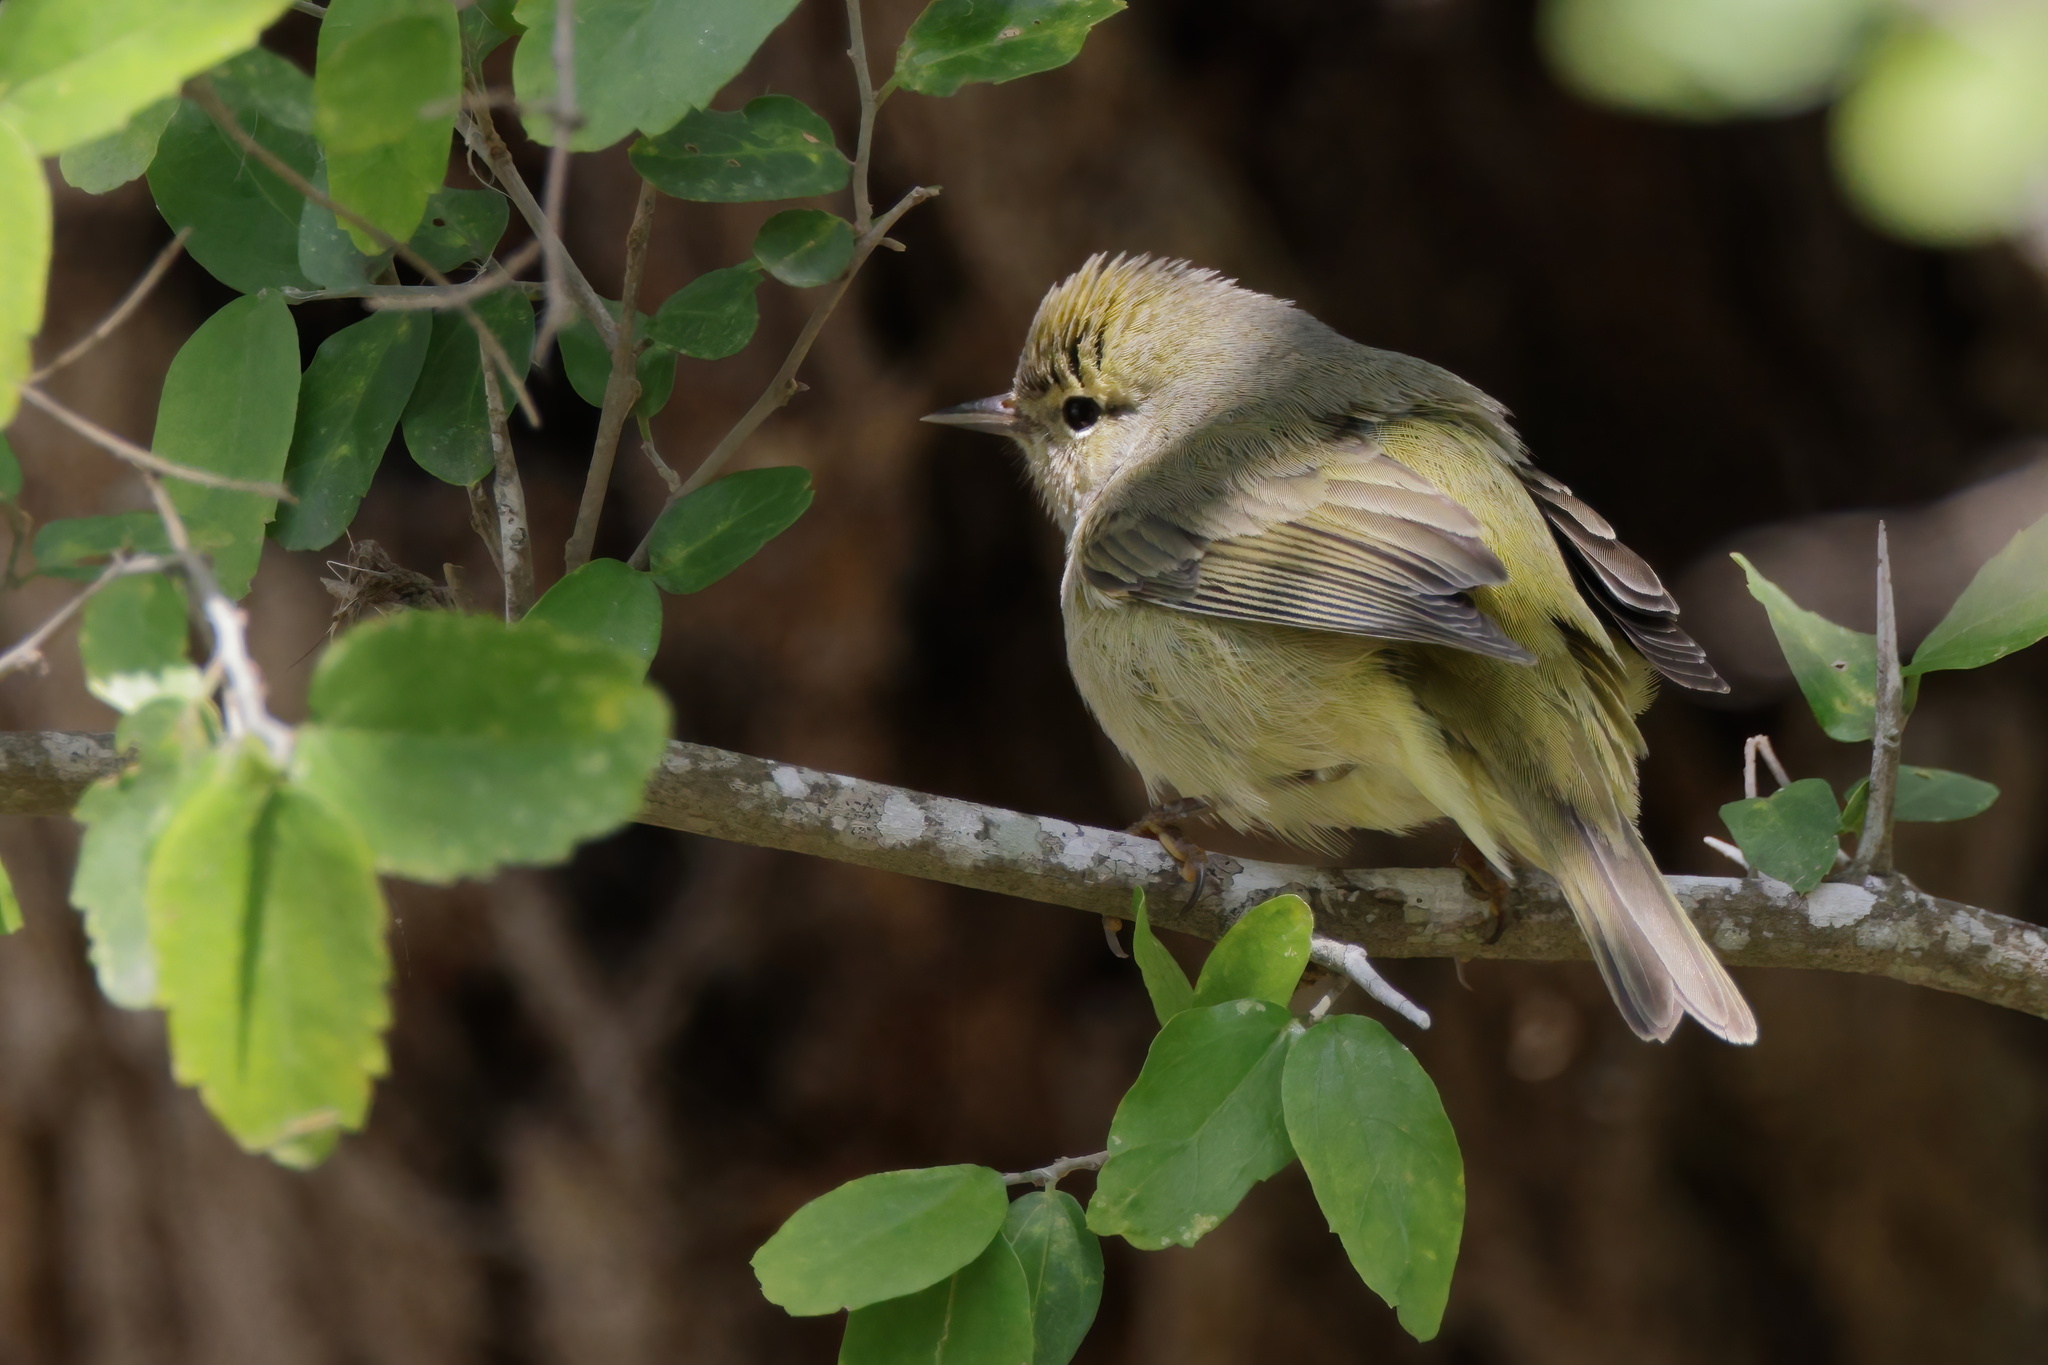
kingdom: Animalia
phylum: Chordata
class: Aves
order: Passeriformes
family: Parulidae
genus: Leiothlypis
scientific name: Leiothlypis celata
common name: Orange-crowned warbler
